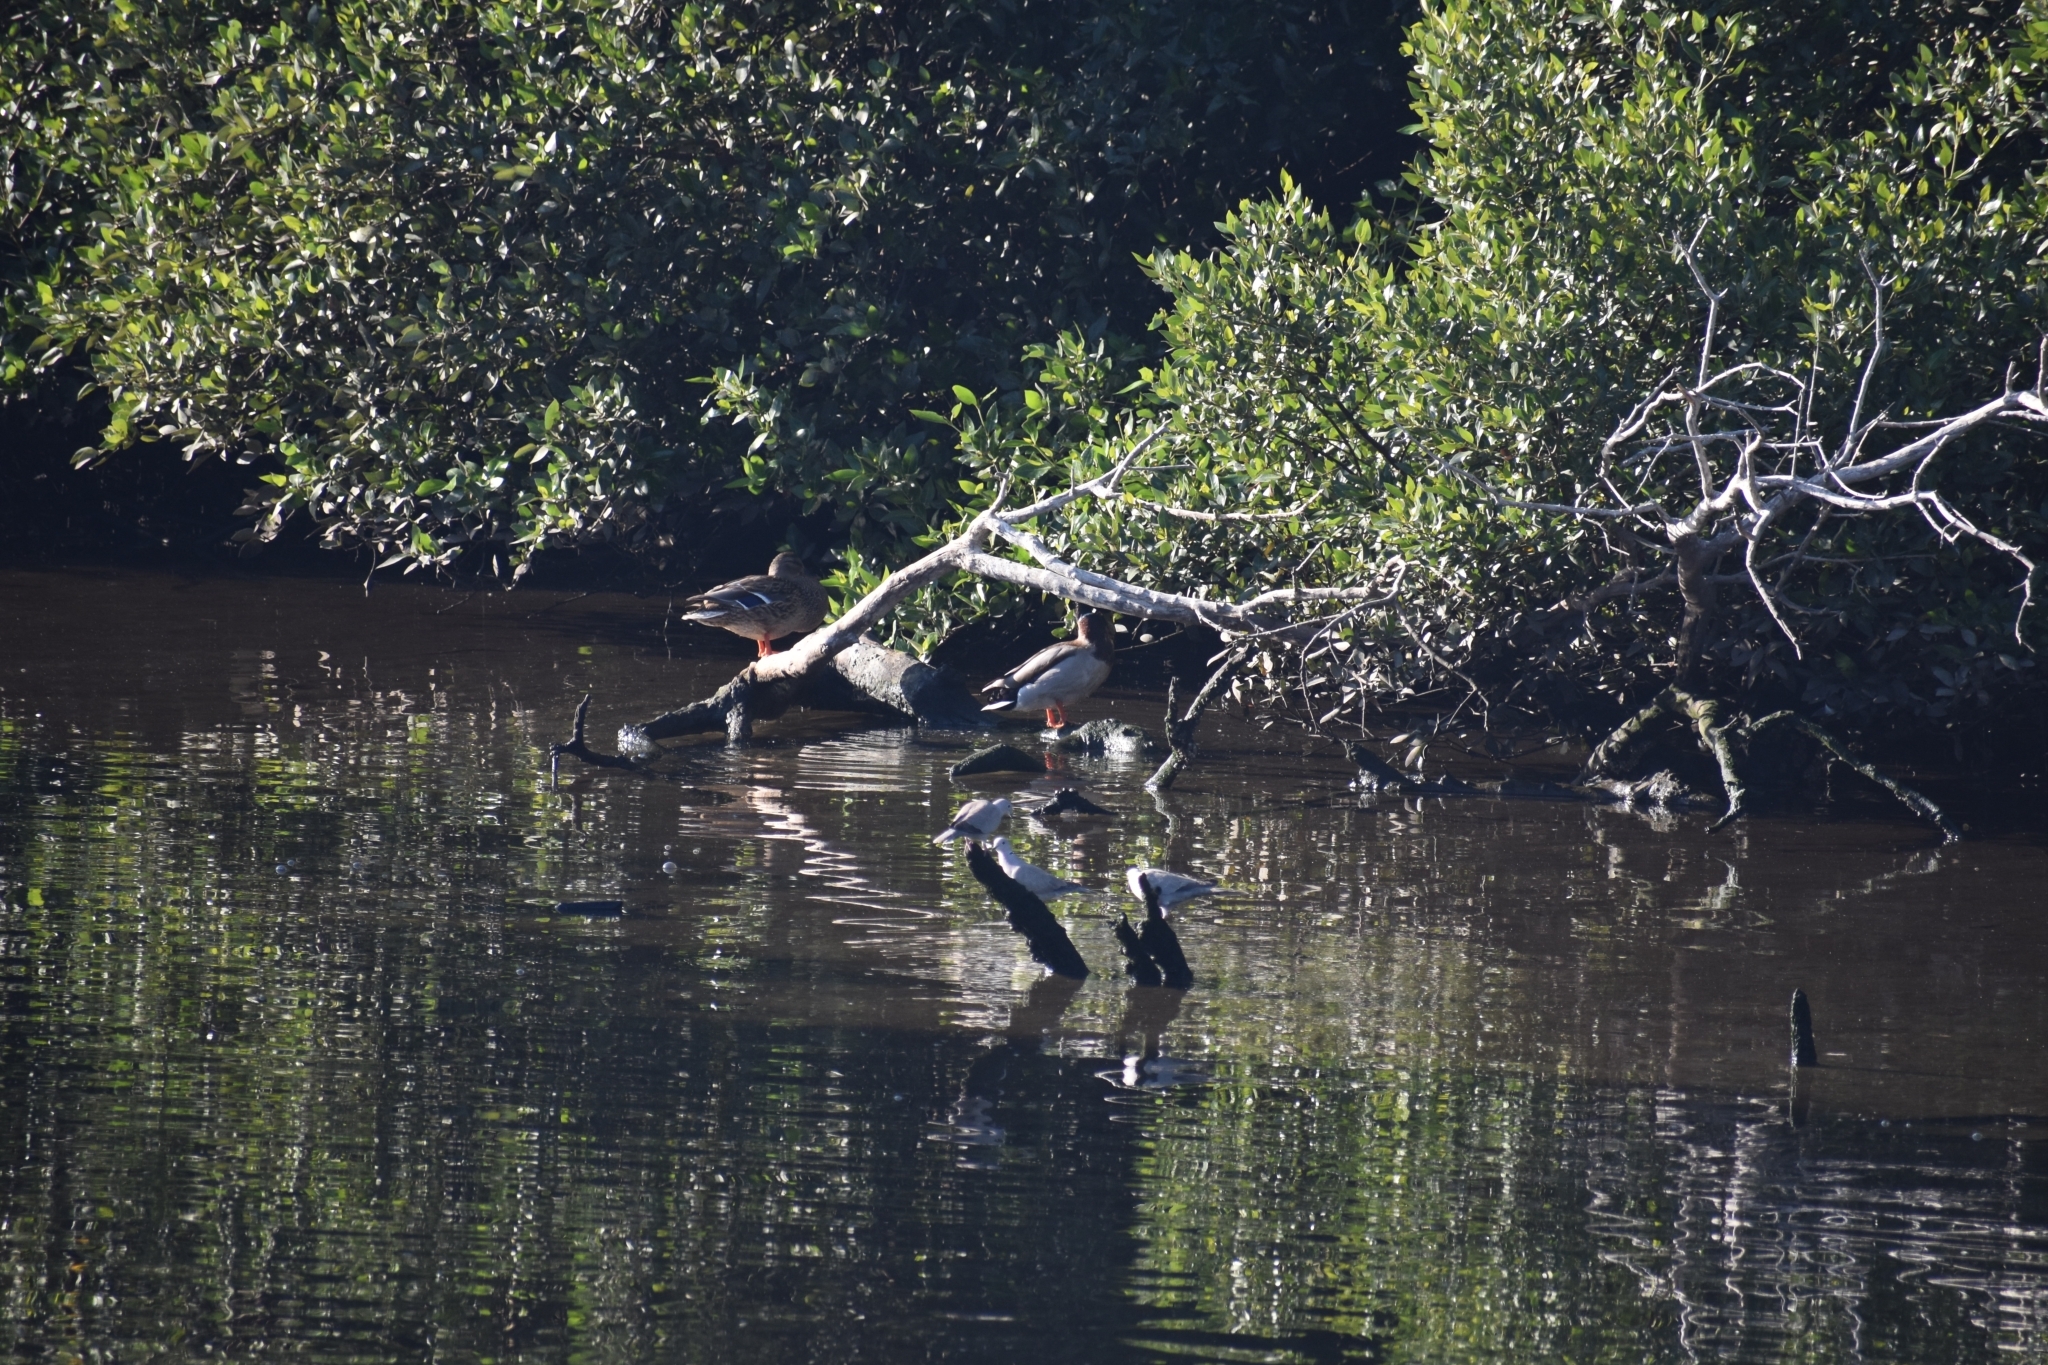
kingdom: Animalia
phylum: Chordata
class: Aves
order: Anseriformes
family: Anatidae
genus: Anas
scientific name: Anas platyrhynchos
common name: Mallard
